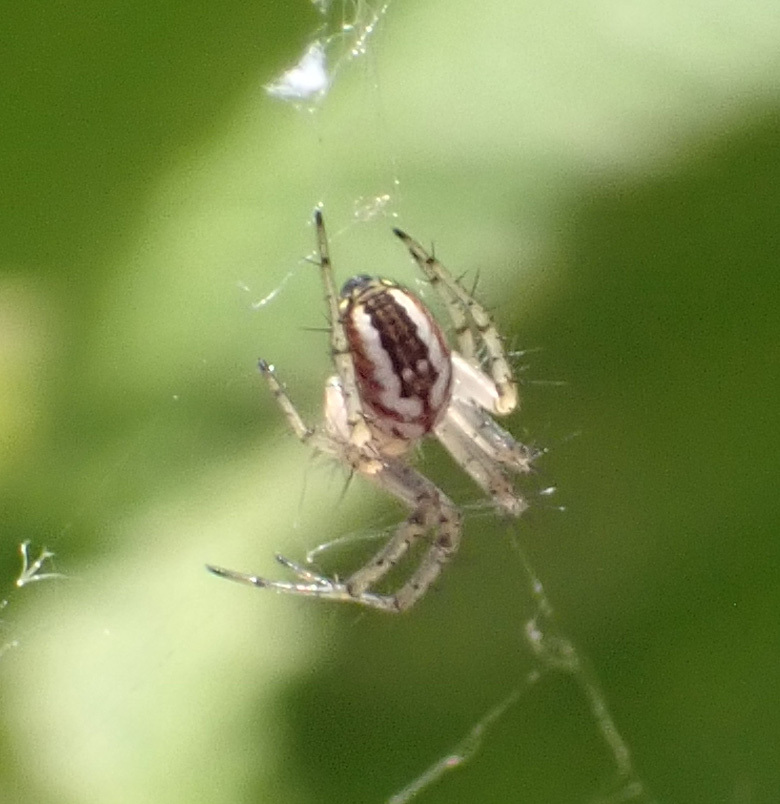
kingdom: Animalia
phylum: Arthropoda
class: Arachnida
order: Araneae
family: Araneidae
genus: Mangora
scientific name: Mangora acalypha
